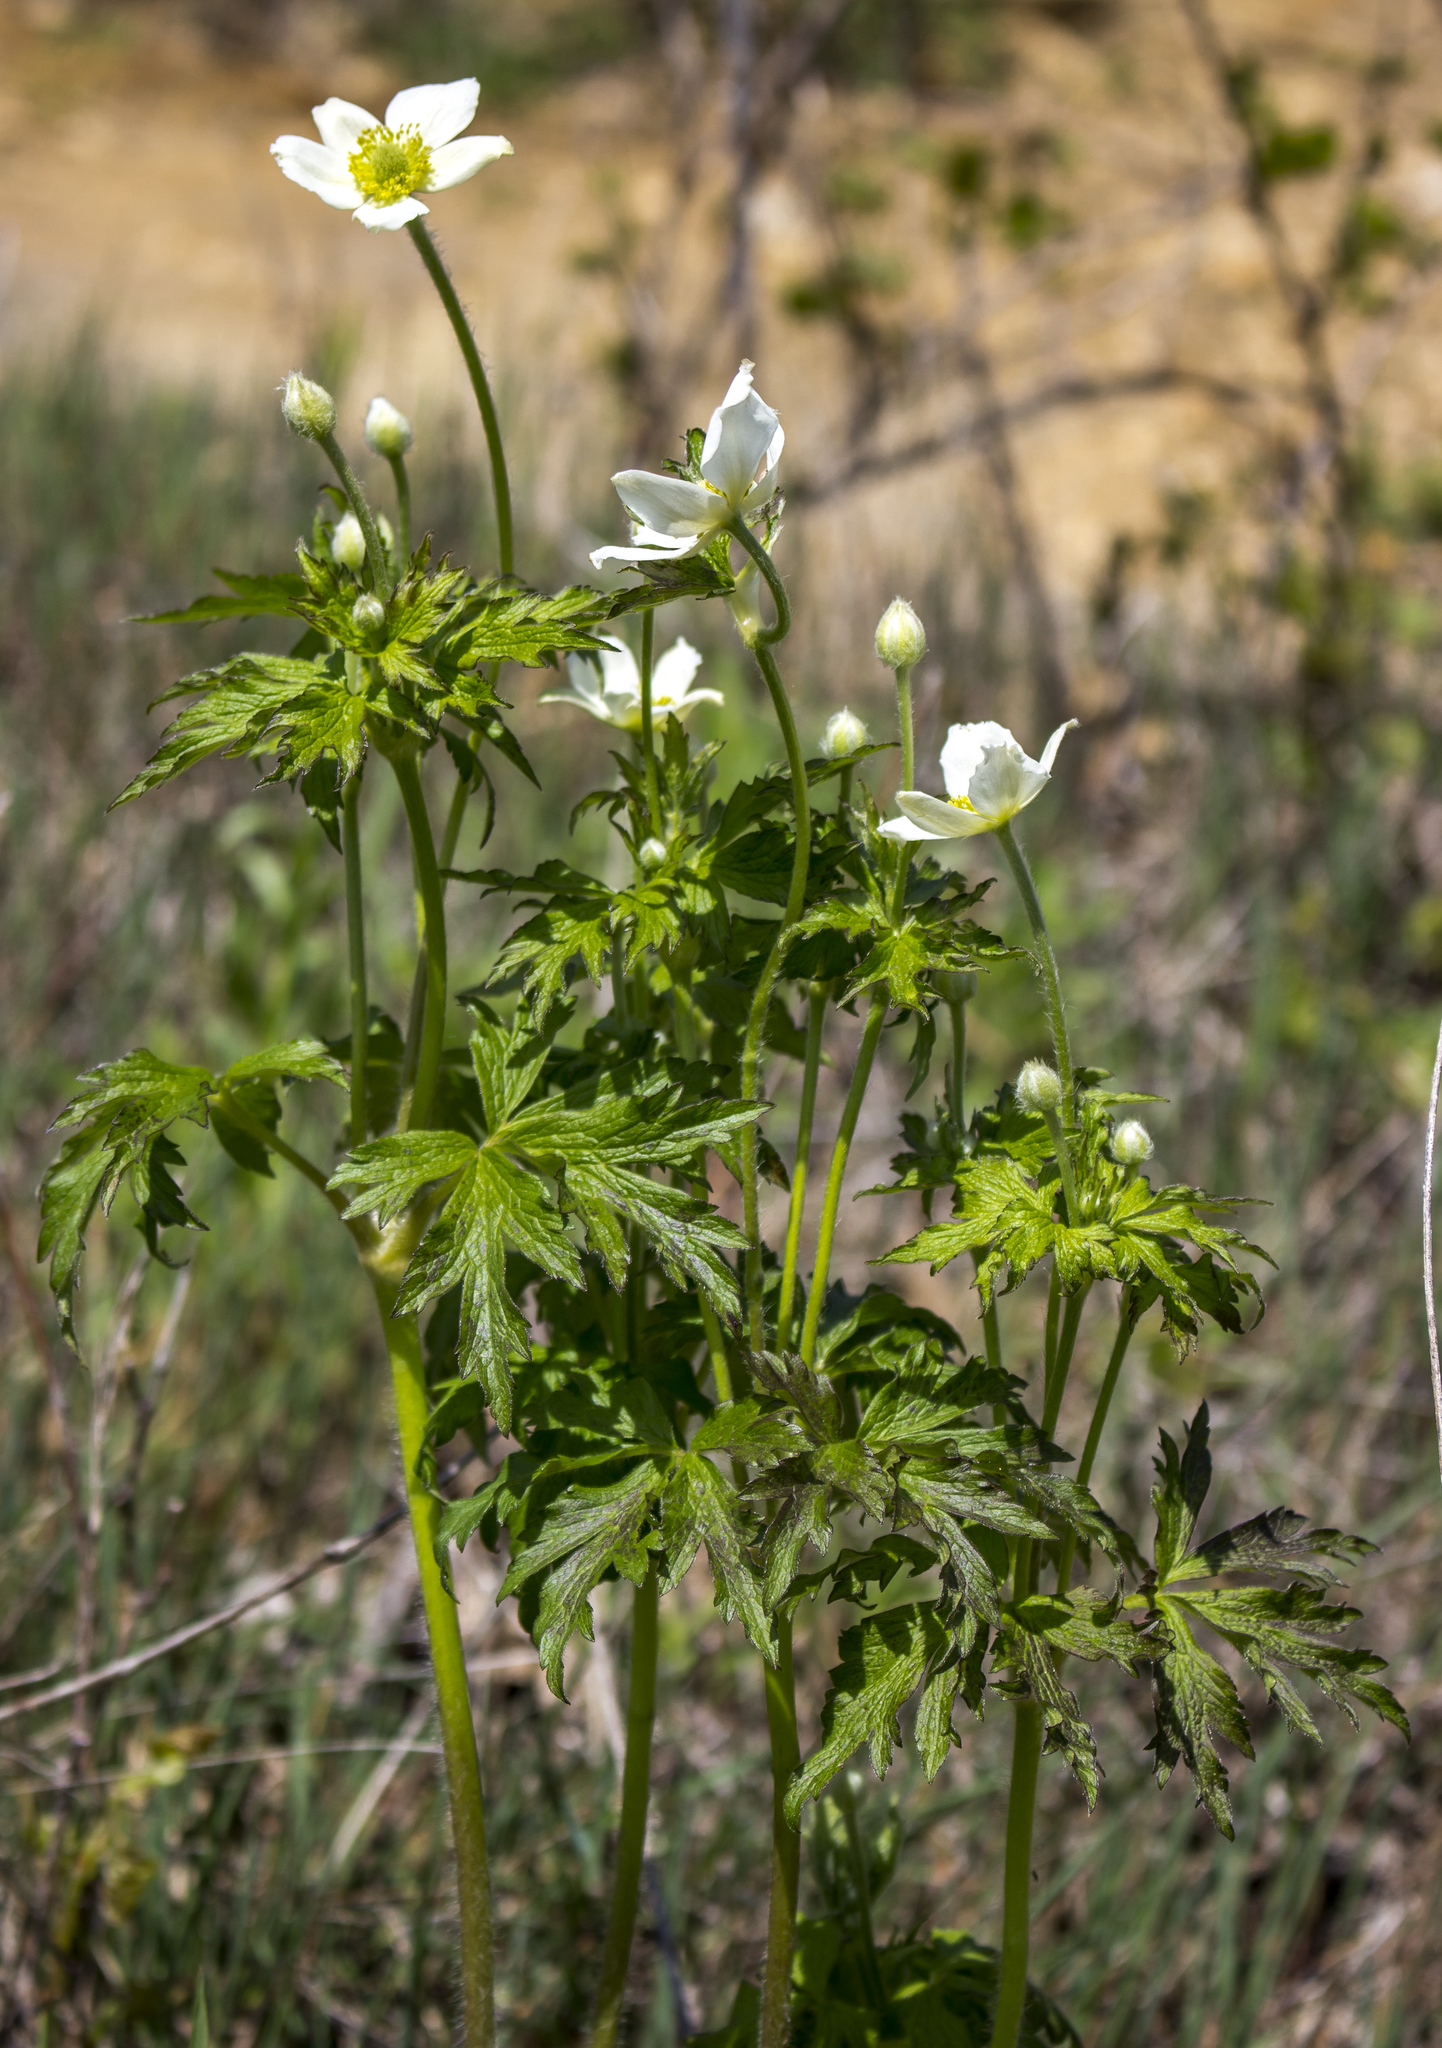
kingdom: Plantae
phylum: Tracheophyta
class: Magnoliopsida
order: Ranunculales
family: Ranunculaceae
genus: Anemone
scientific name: Anemone cylindrica
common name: Candle anemone
